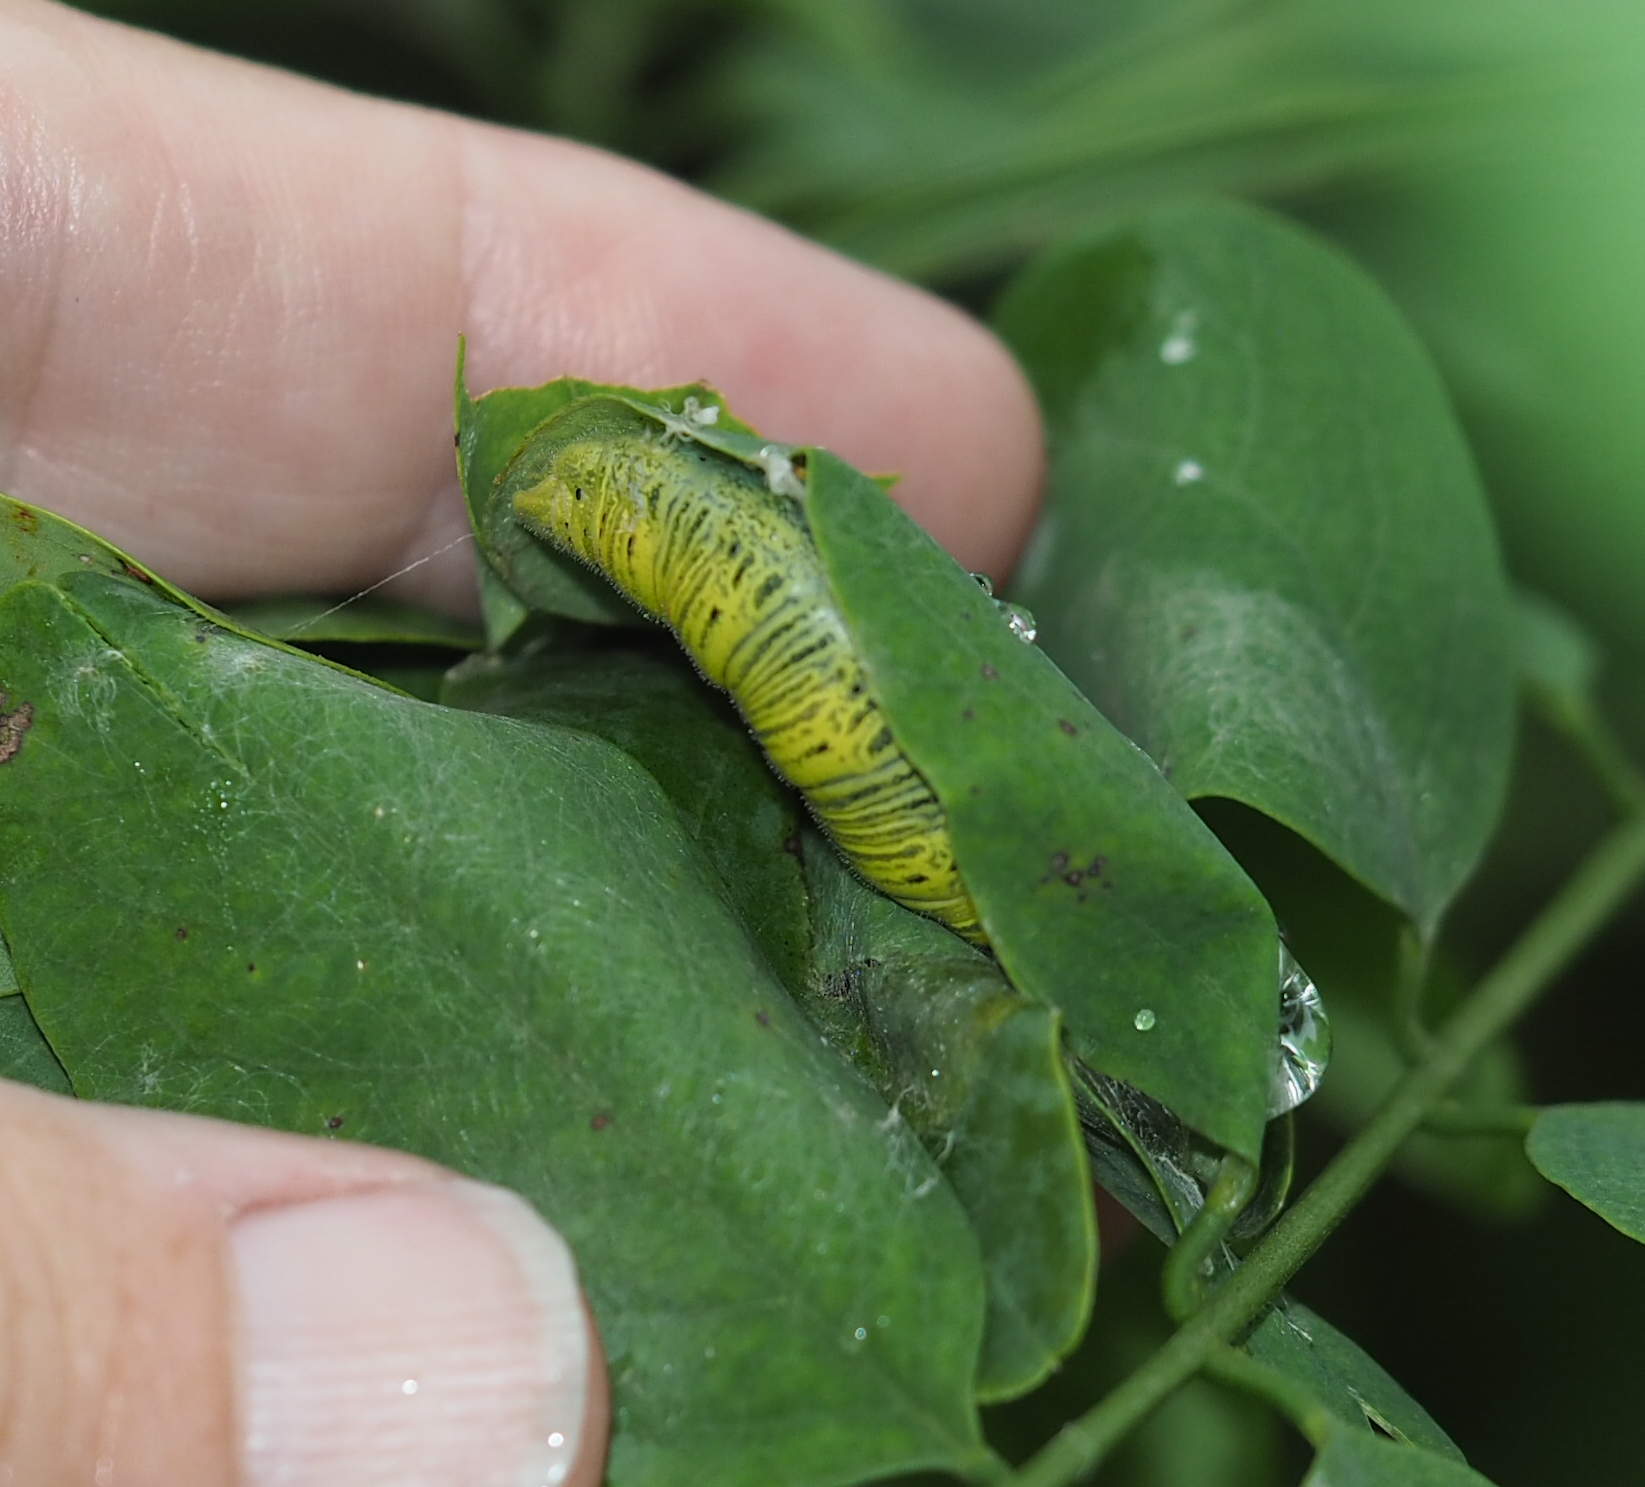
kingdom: Animalia
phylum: Arthropoda
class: Insecta
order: Lepidoptera
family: Hesperiidae
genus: Epargyreus
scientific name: Epargyreus clarus
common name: Silver-spotted skipper
